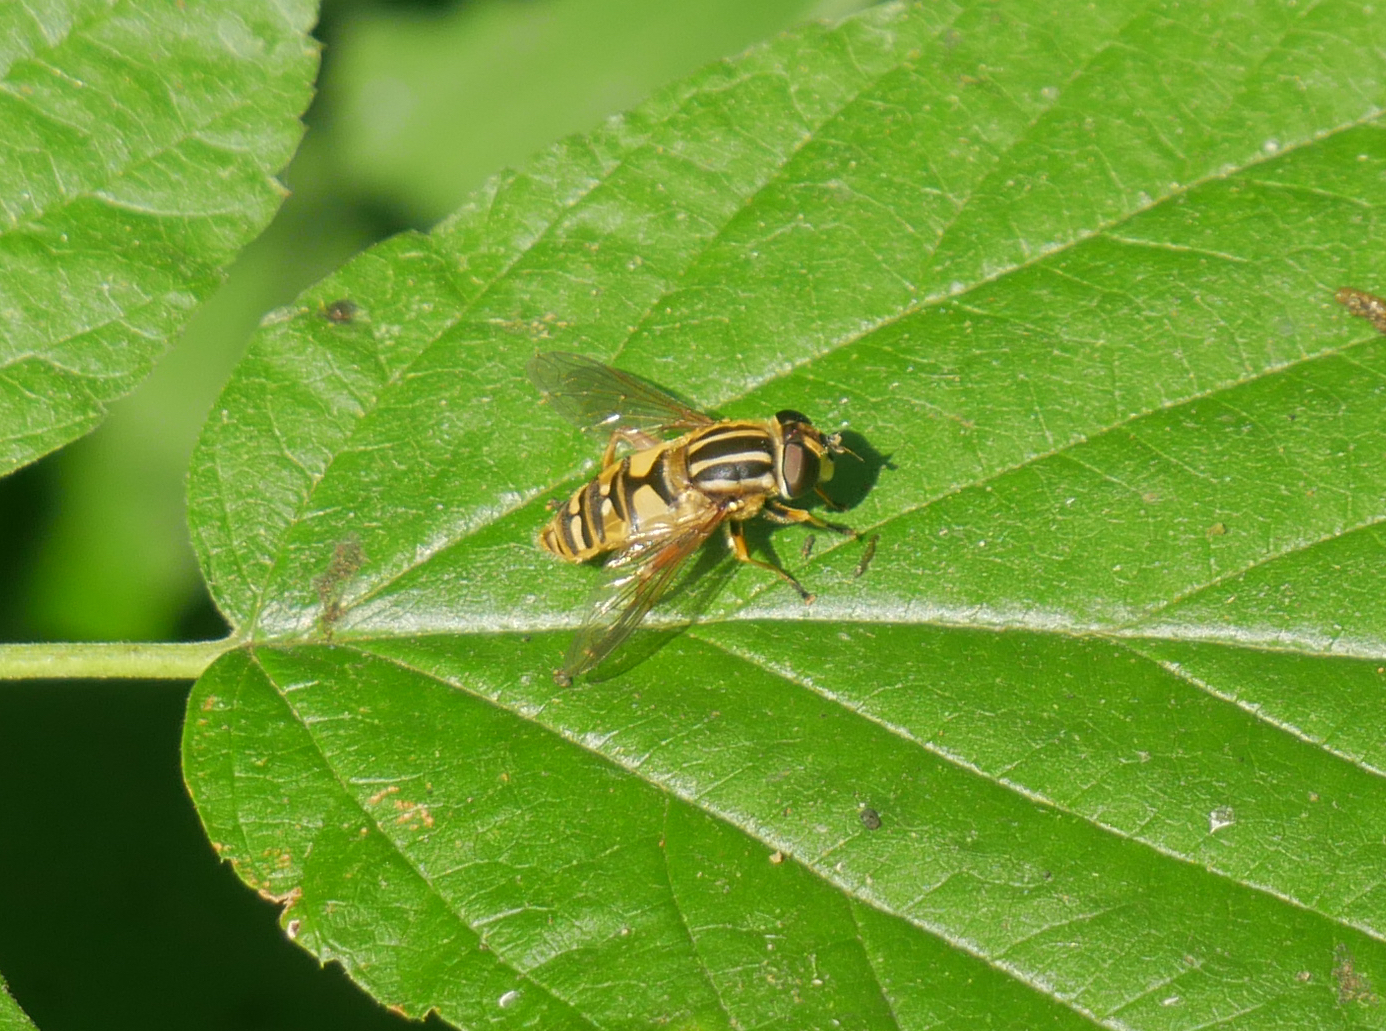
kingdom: Animalia
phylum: Arthropoda
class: Insecta
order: Diptera
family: Syrphidae
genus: Helophilus
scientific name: Helophilus pendulus
